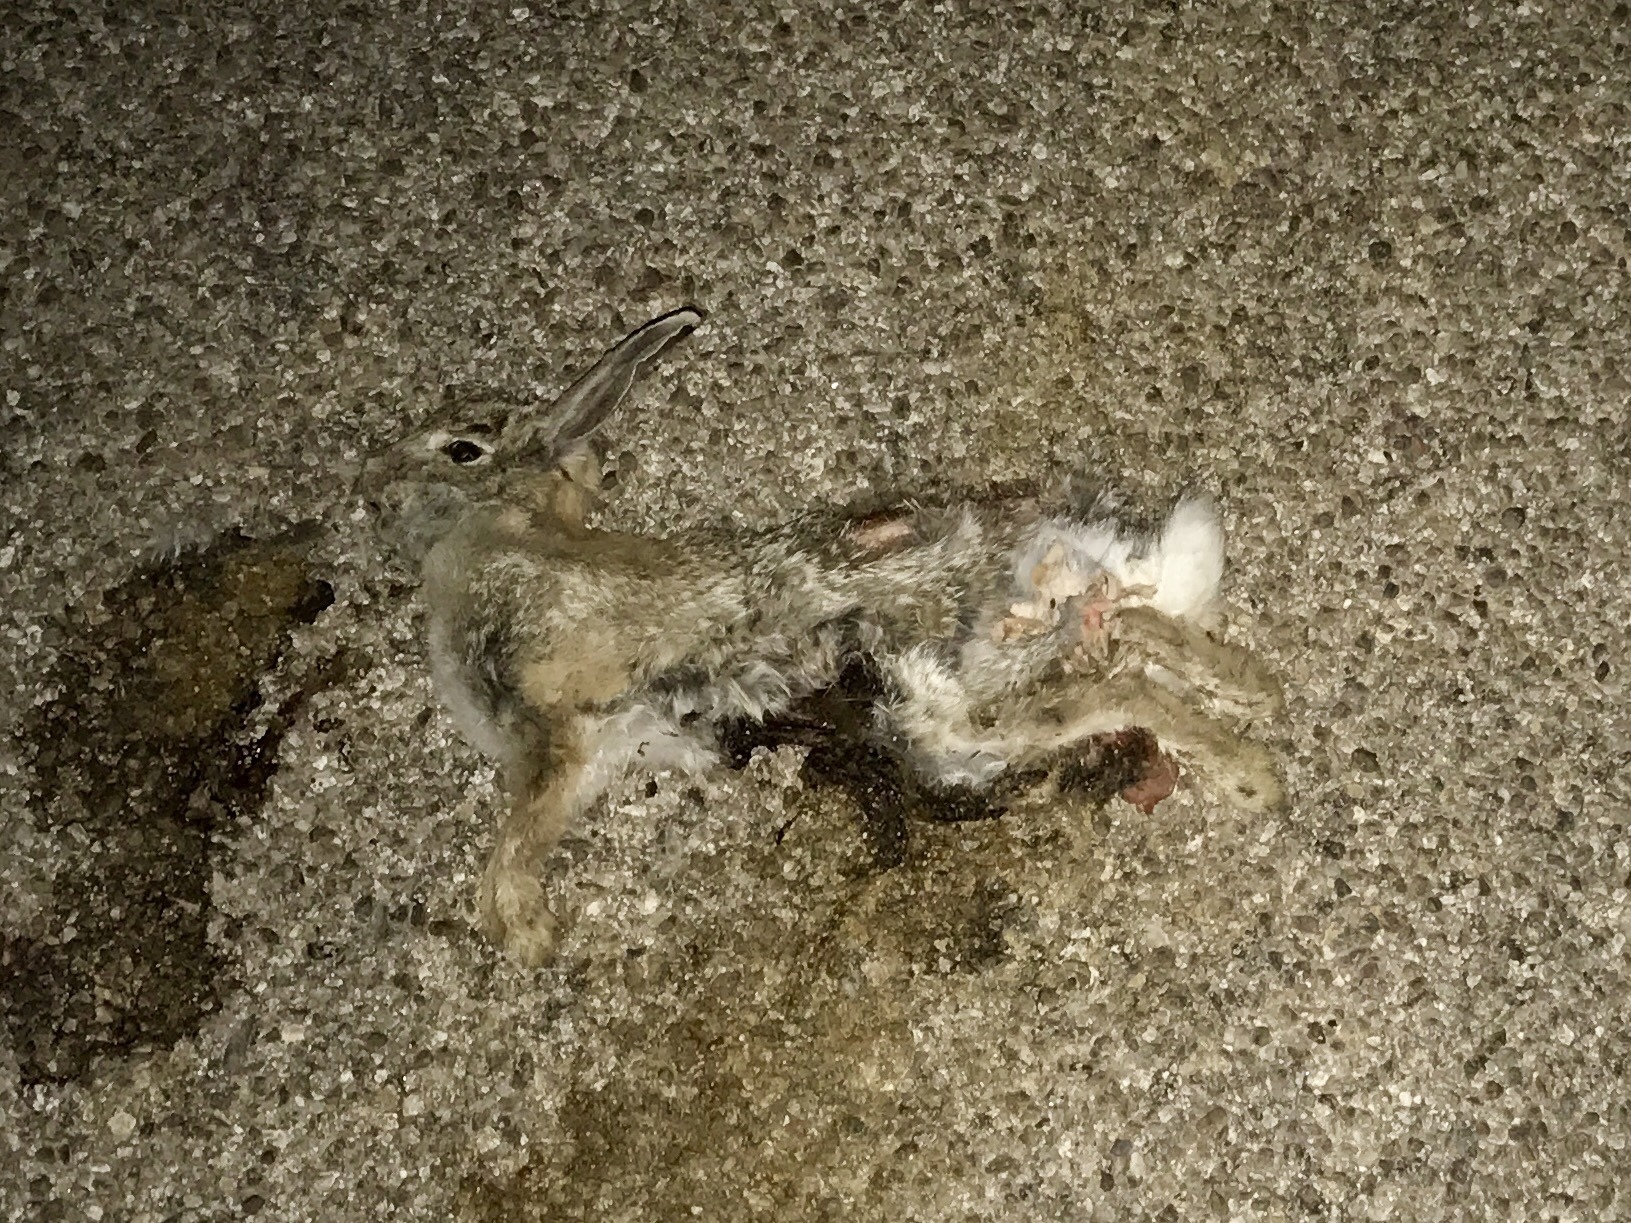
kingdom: Animalia
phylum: Chordata
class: Mammalia
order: Lagomorpha
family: Leporidae
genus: Sylvilagus
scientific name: Sylvilagus audubonii
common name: Desert cottontail
